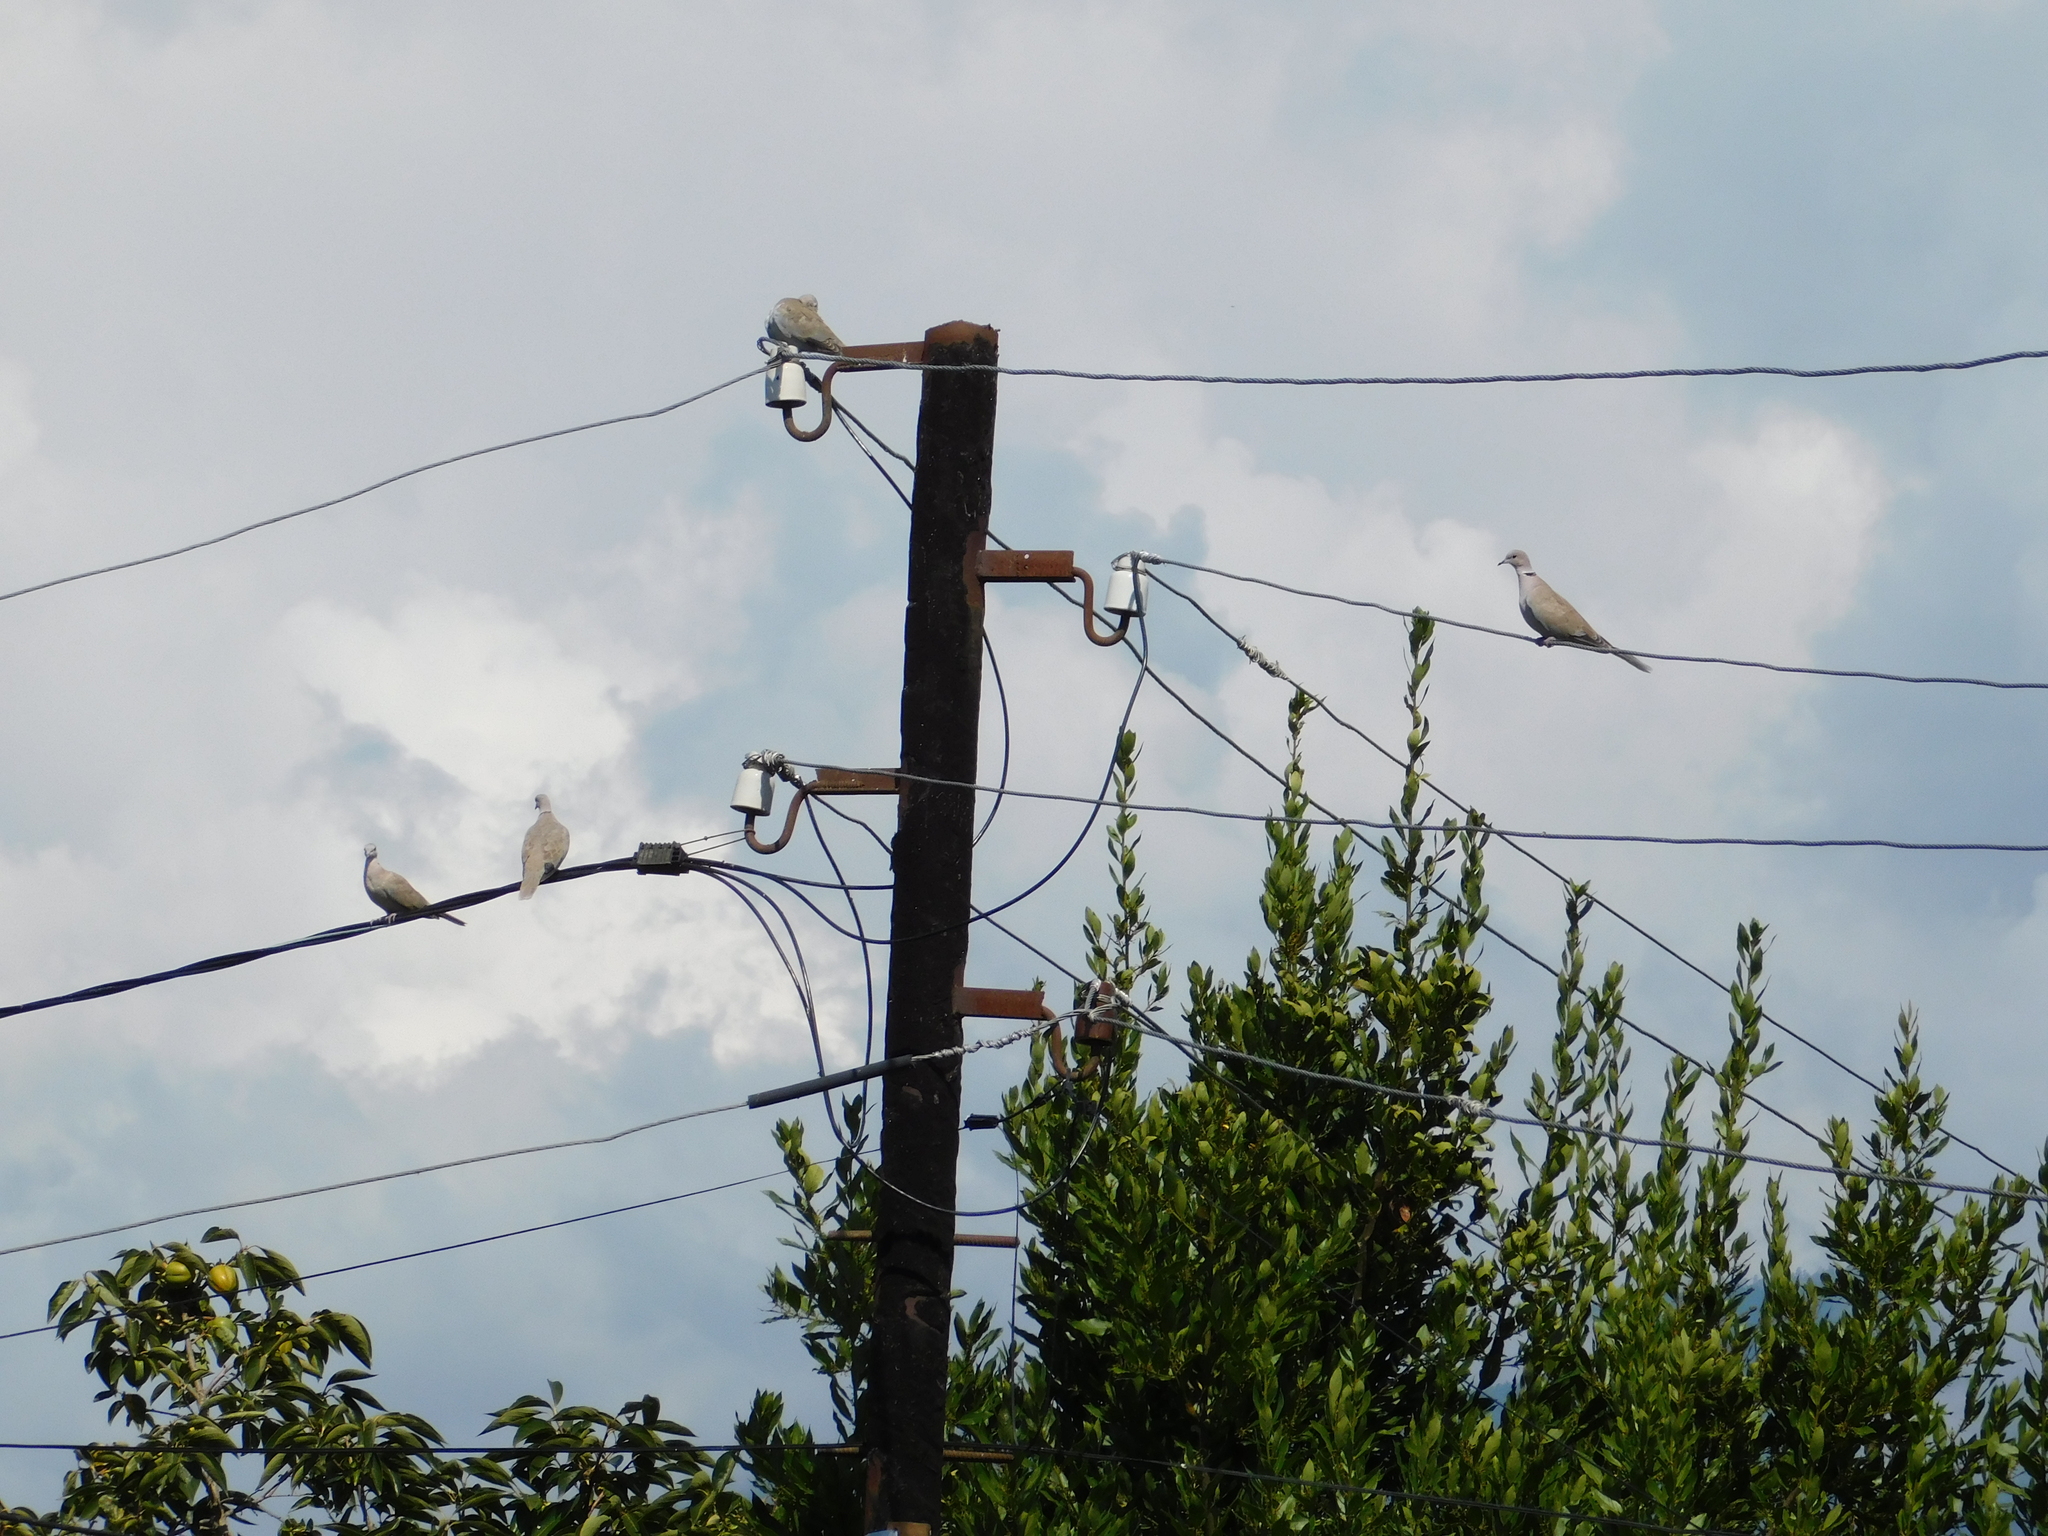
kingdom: Animalia
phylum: Chordata
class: Aves
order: Columbiformes
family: Columbidae
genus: Streptopelia
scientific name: Streptopelia decaocto
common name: Eurasian collared dove
